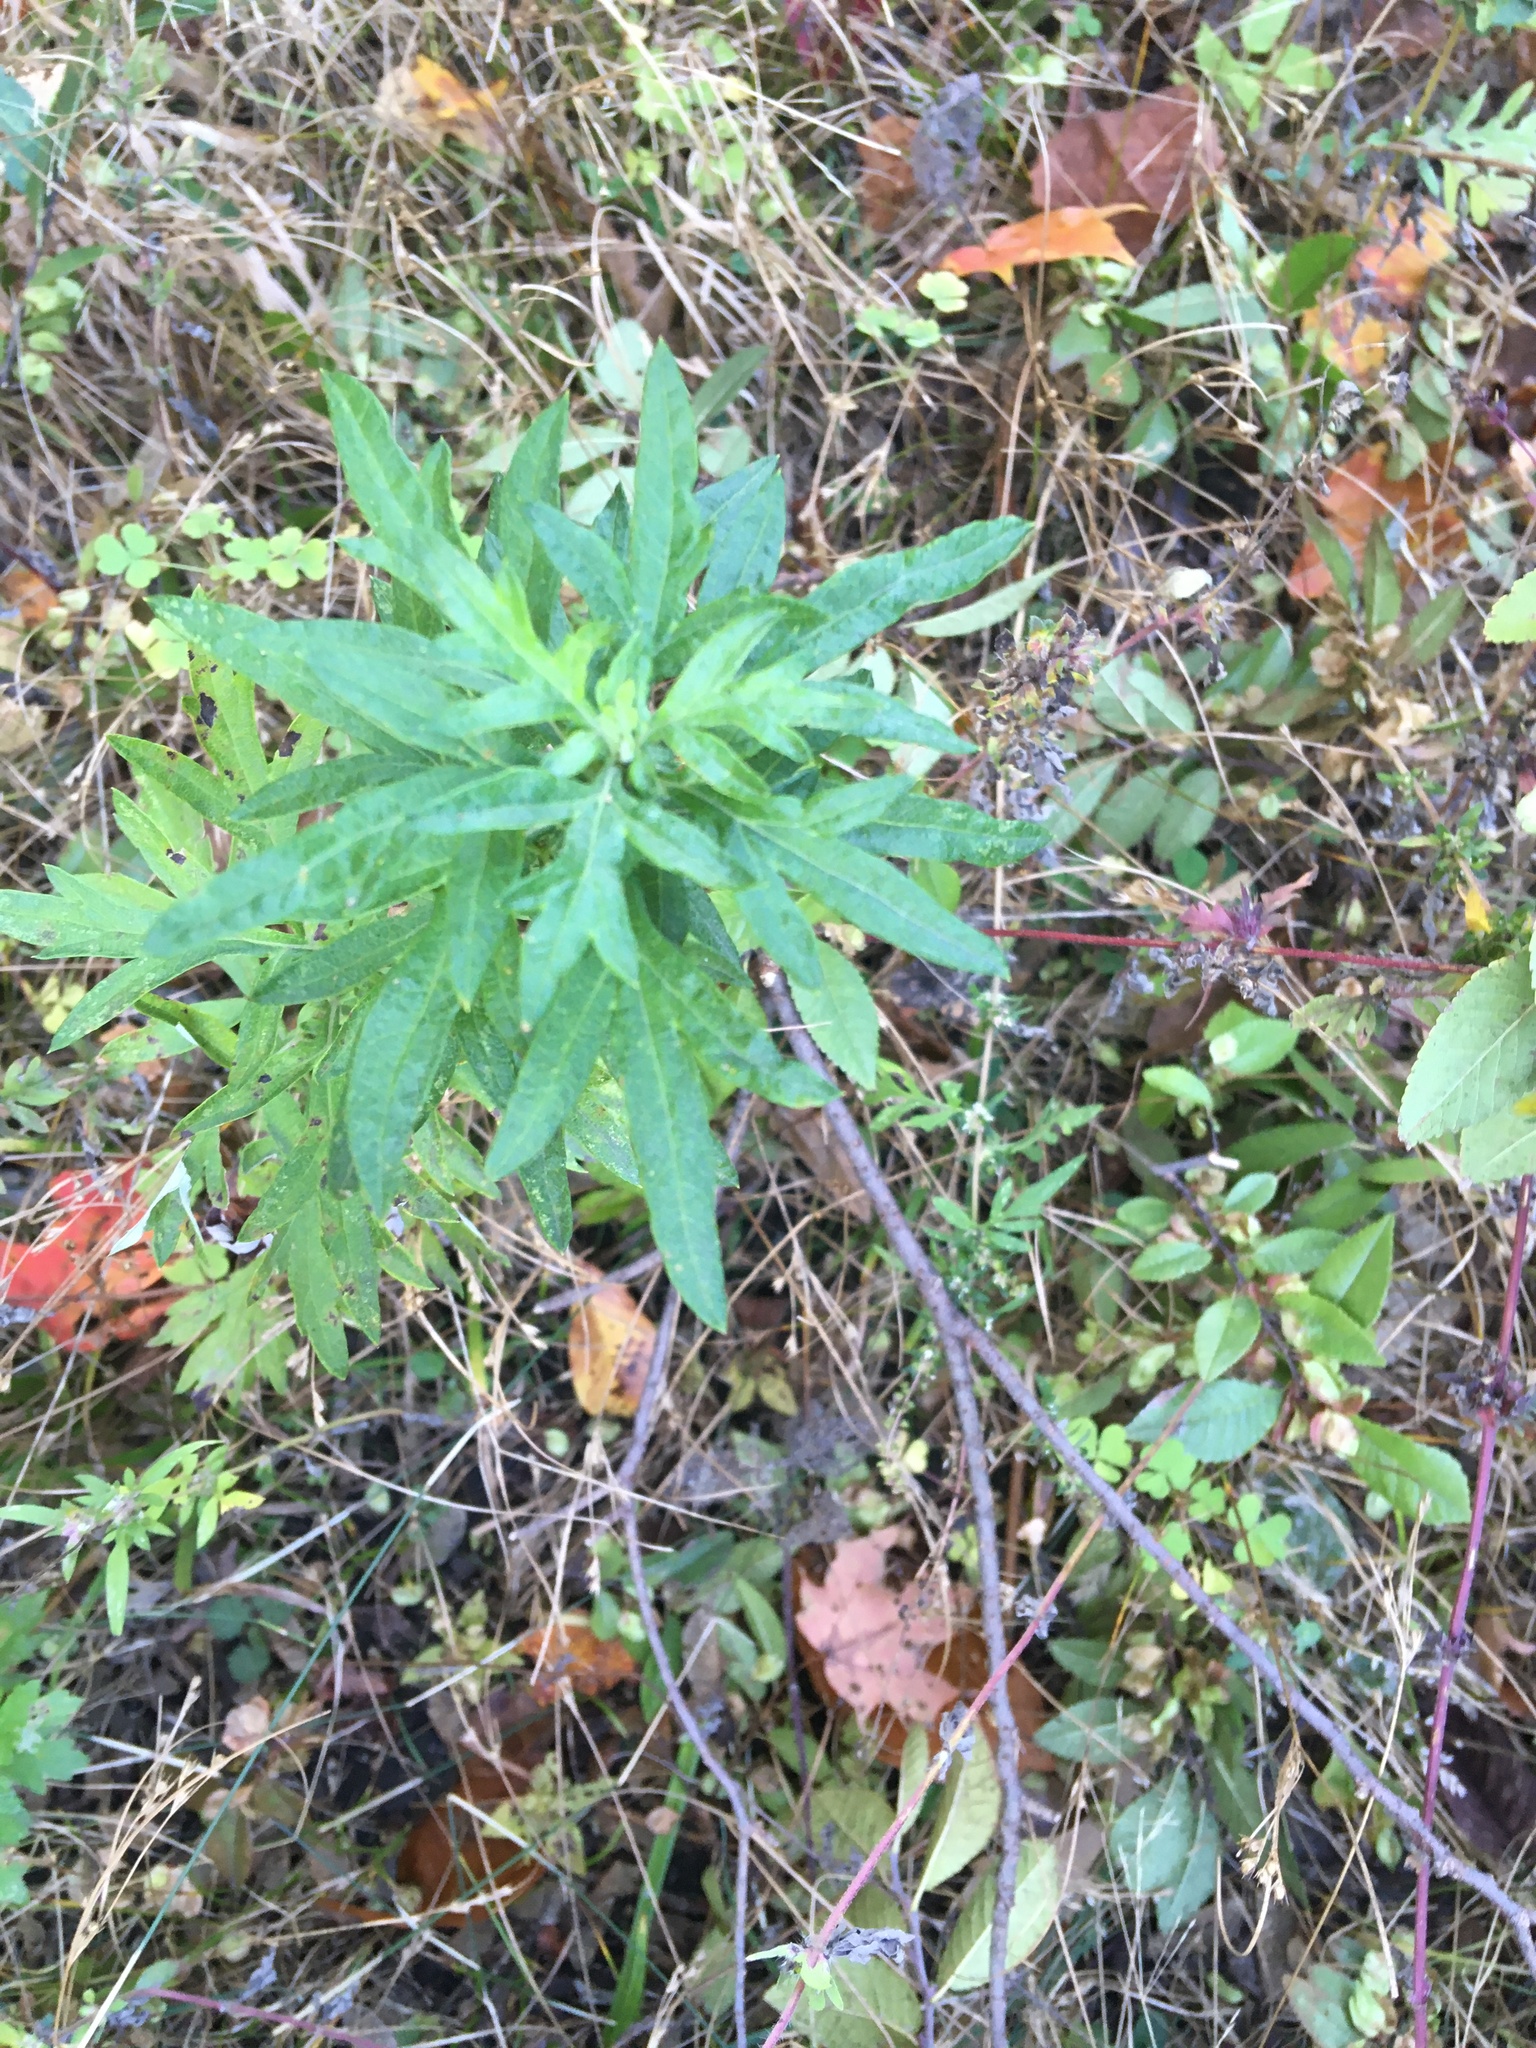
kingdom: Plantae
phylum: Tracheophyta
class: Magnoliopsida
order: Asterales
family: Asteraceae
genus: Artemisia
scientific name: Artemisia vulgaris
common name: Mugwort
